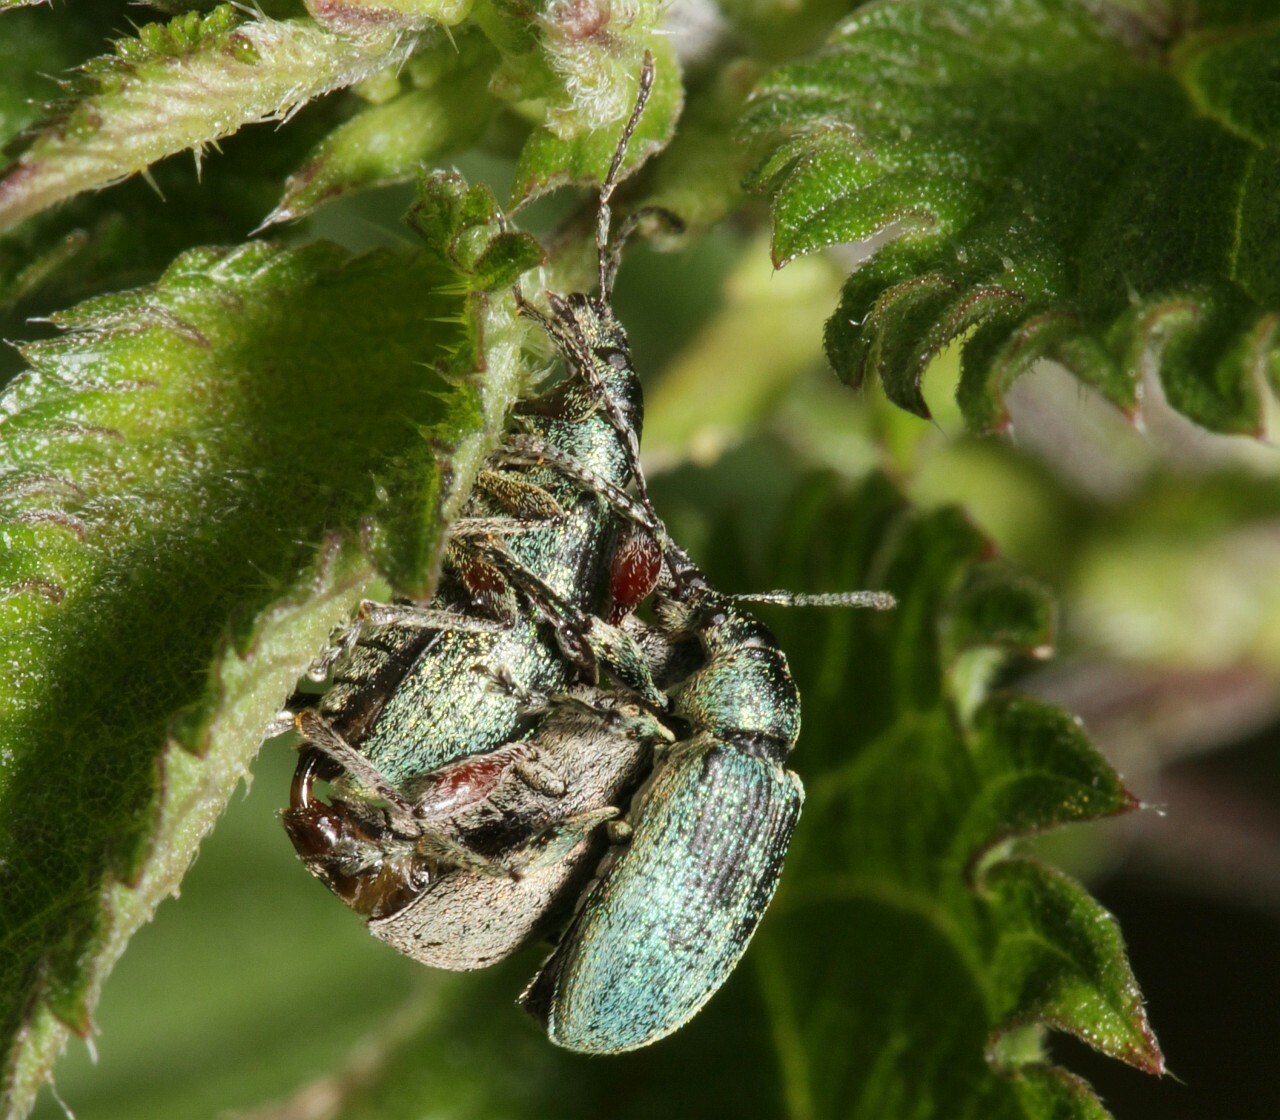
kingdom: Animalia
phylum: Arthropoda
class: Insecta
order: Coleoptera
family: Curculionidae
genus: Phyllobius
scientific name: Phyllobius pomaceus
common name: Green nettle weevil
